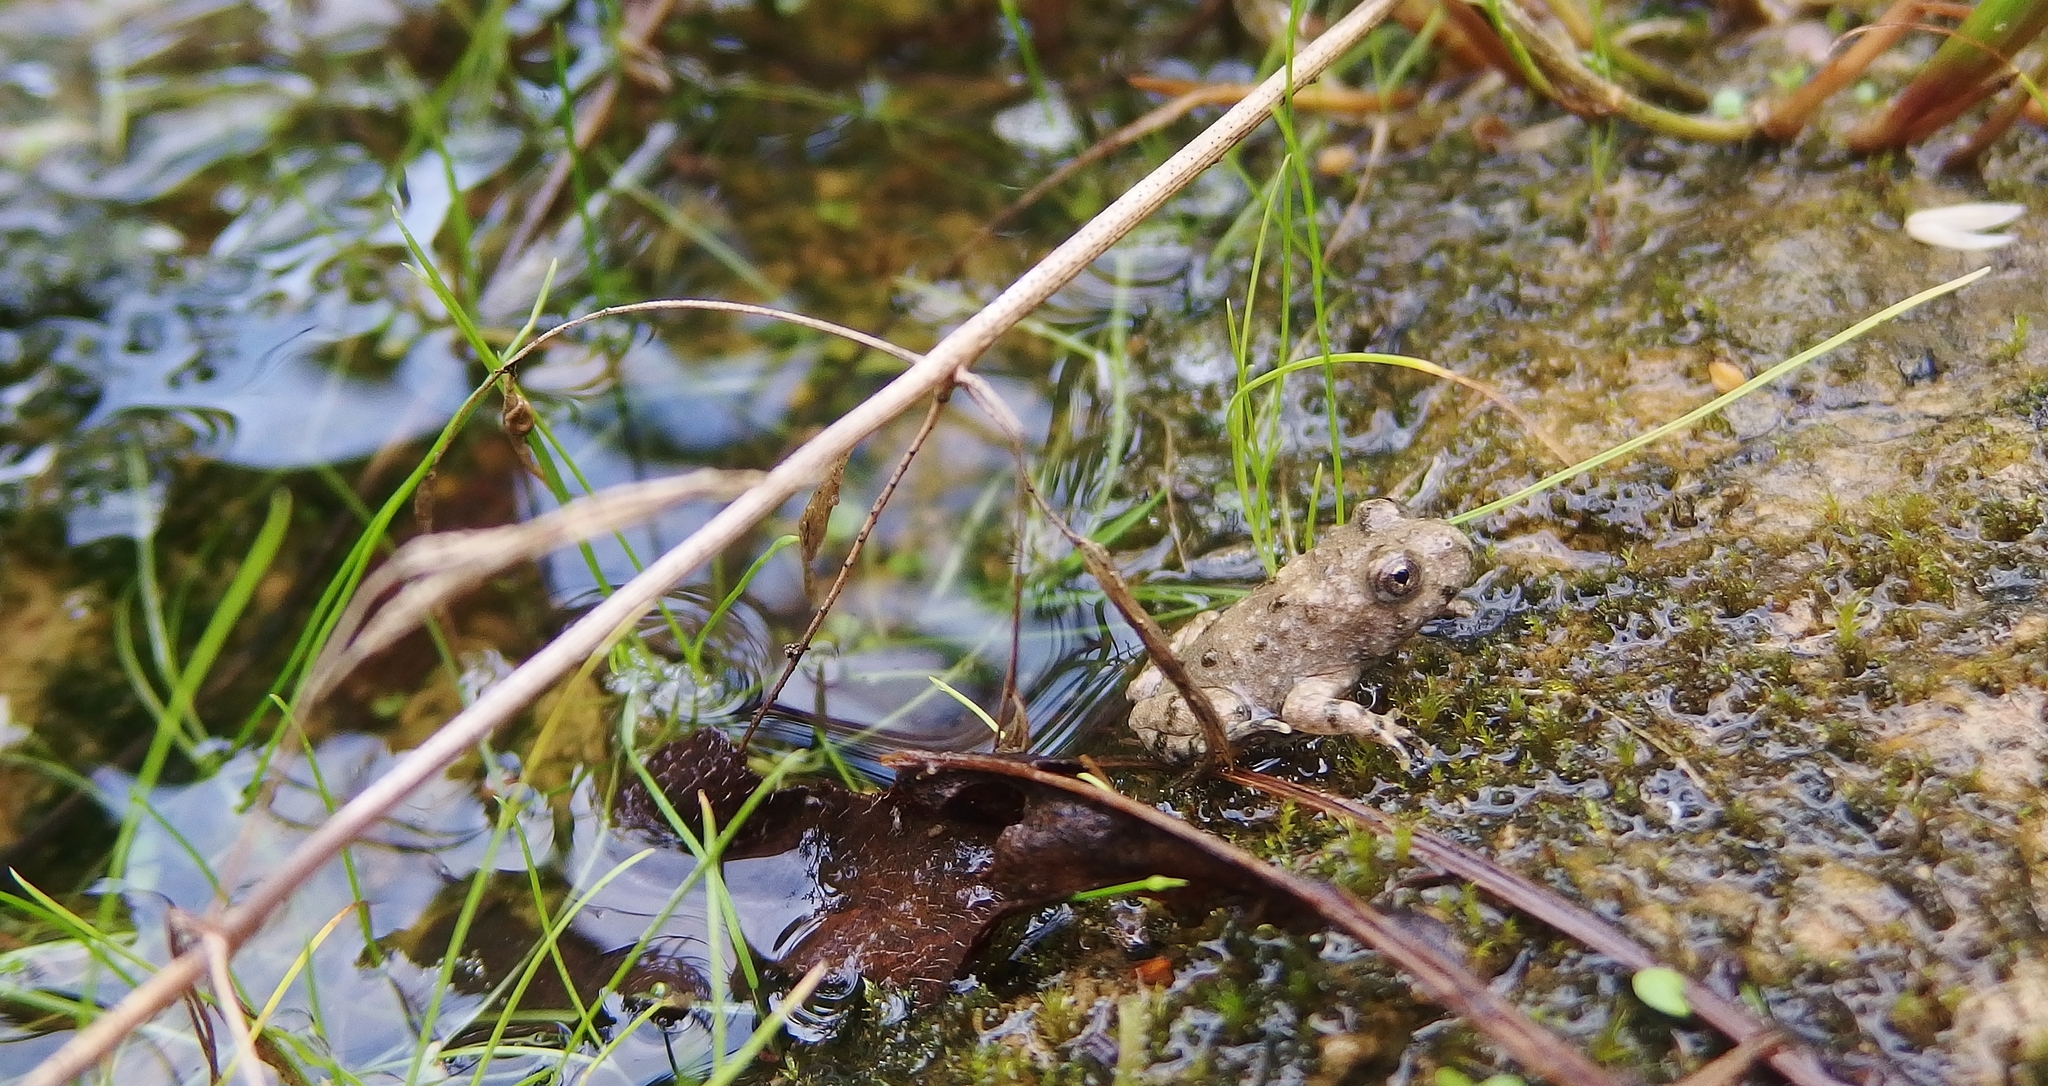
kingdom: Animalia
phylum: Chordata
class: Amphibia
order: Anura
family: Bombinatoridae
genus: Bombina
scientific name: Bombina variegata
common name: Yellow-bellied toad
